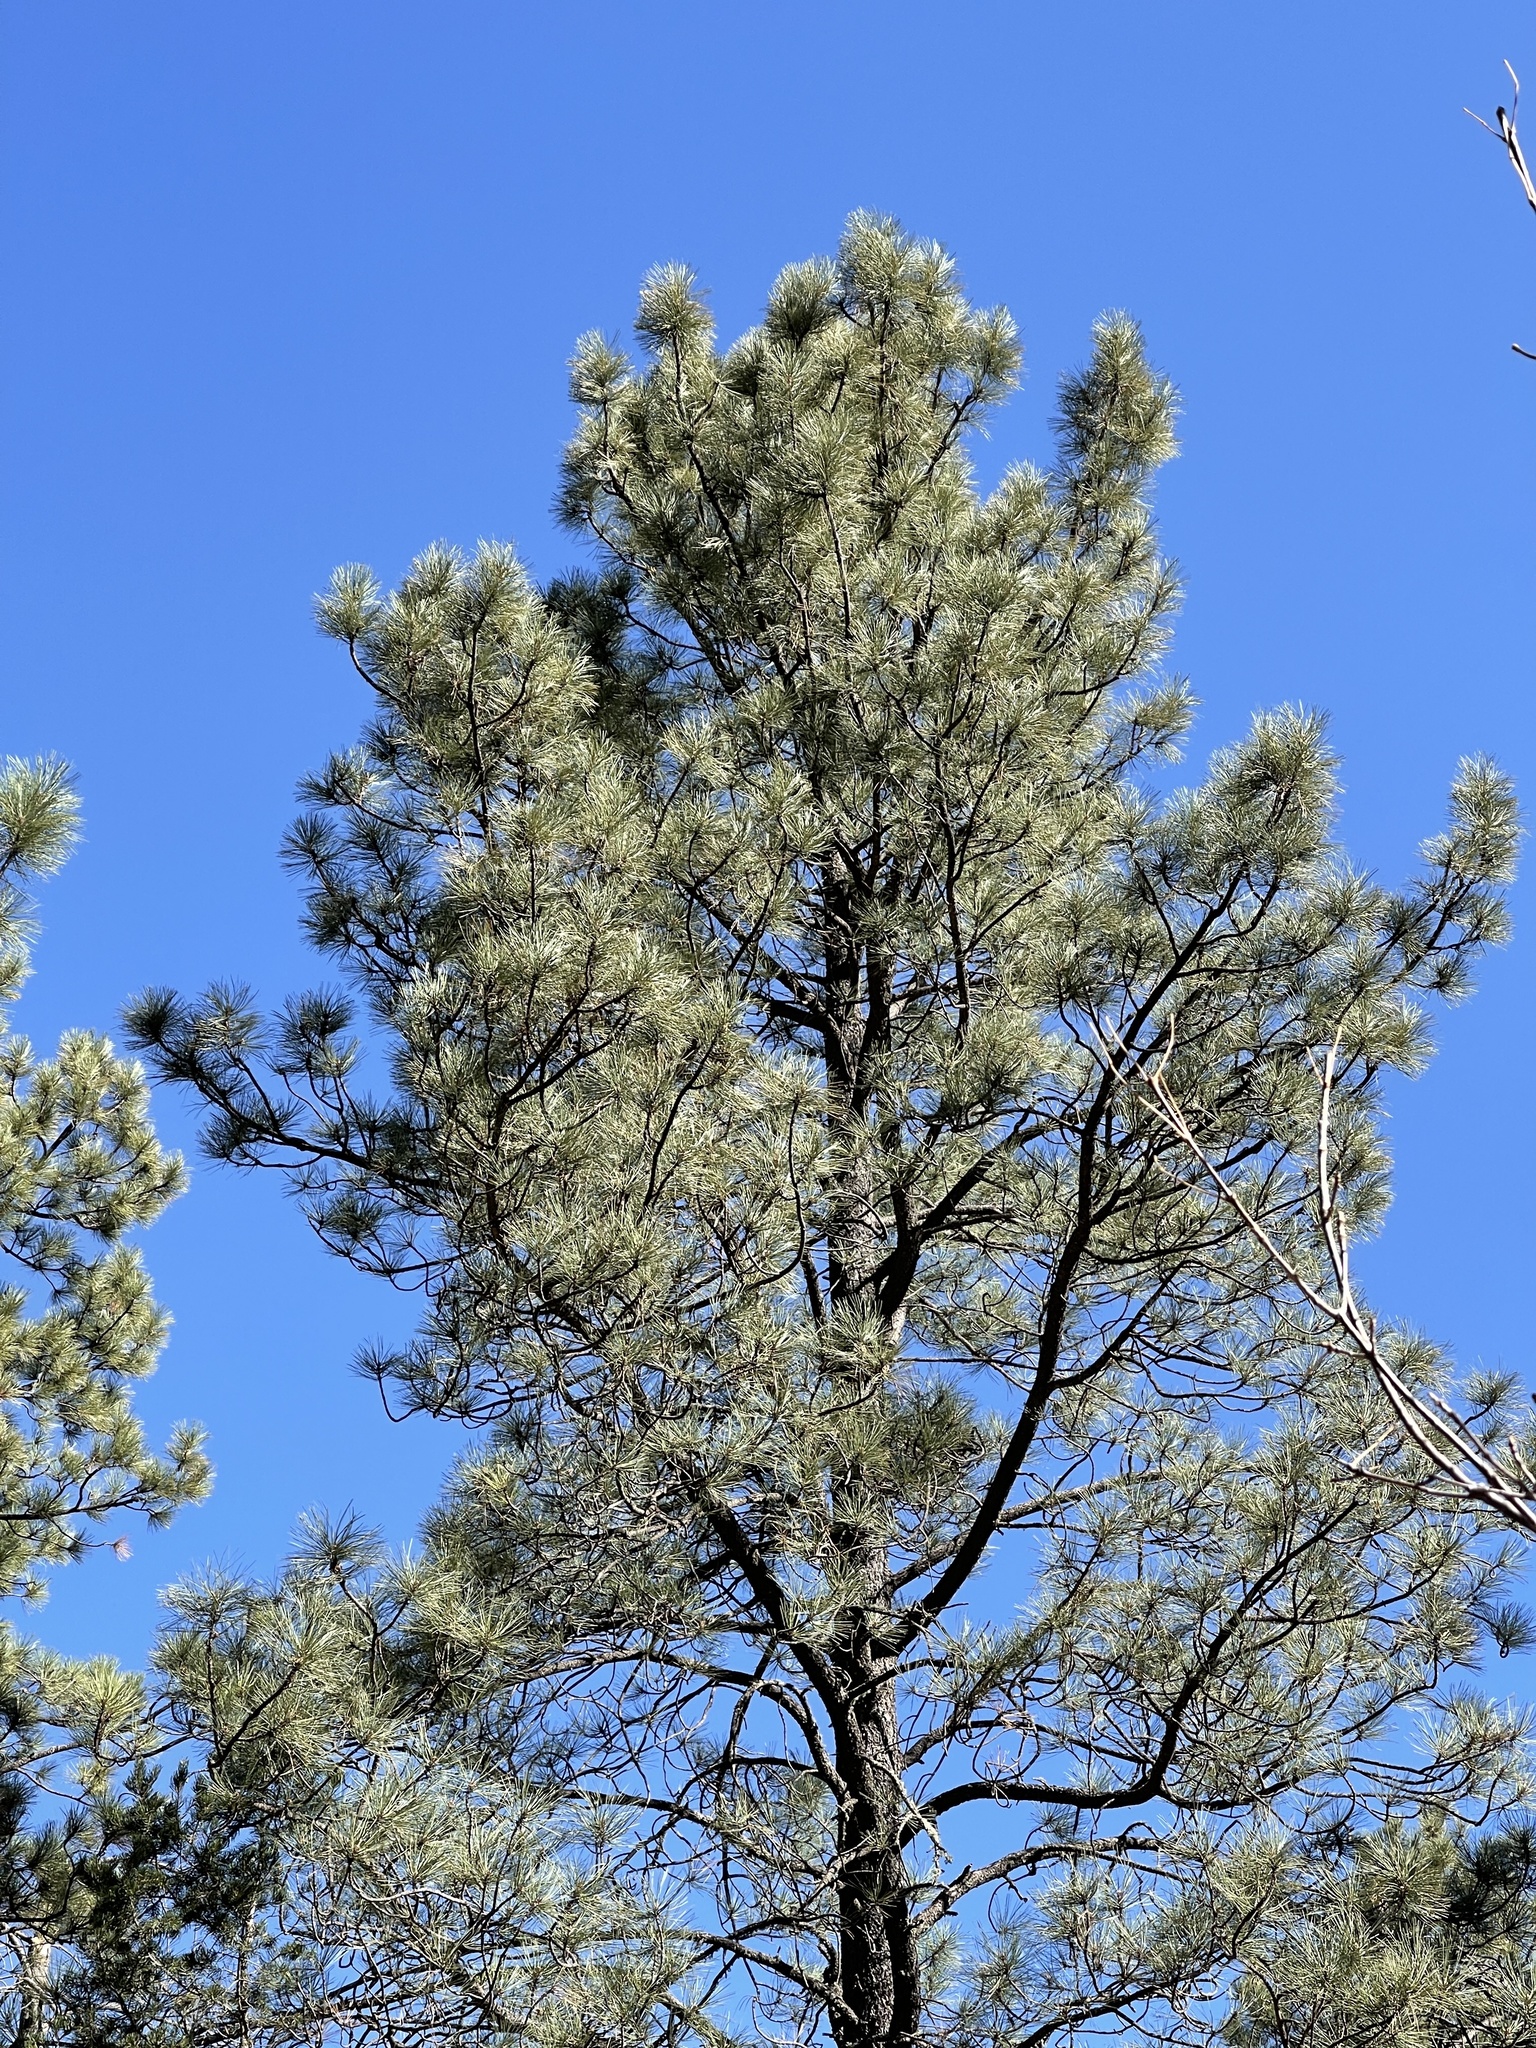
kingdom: Plantae
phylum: Tracheophyta
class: Pinopsida
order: Pinales
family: Pinaceae
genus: Pinus
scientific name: Pinus ponderosa
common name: Western yellow-pine
